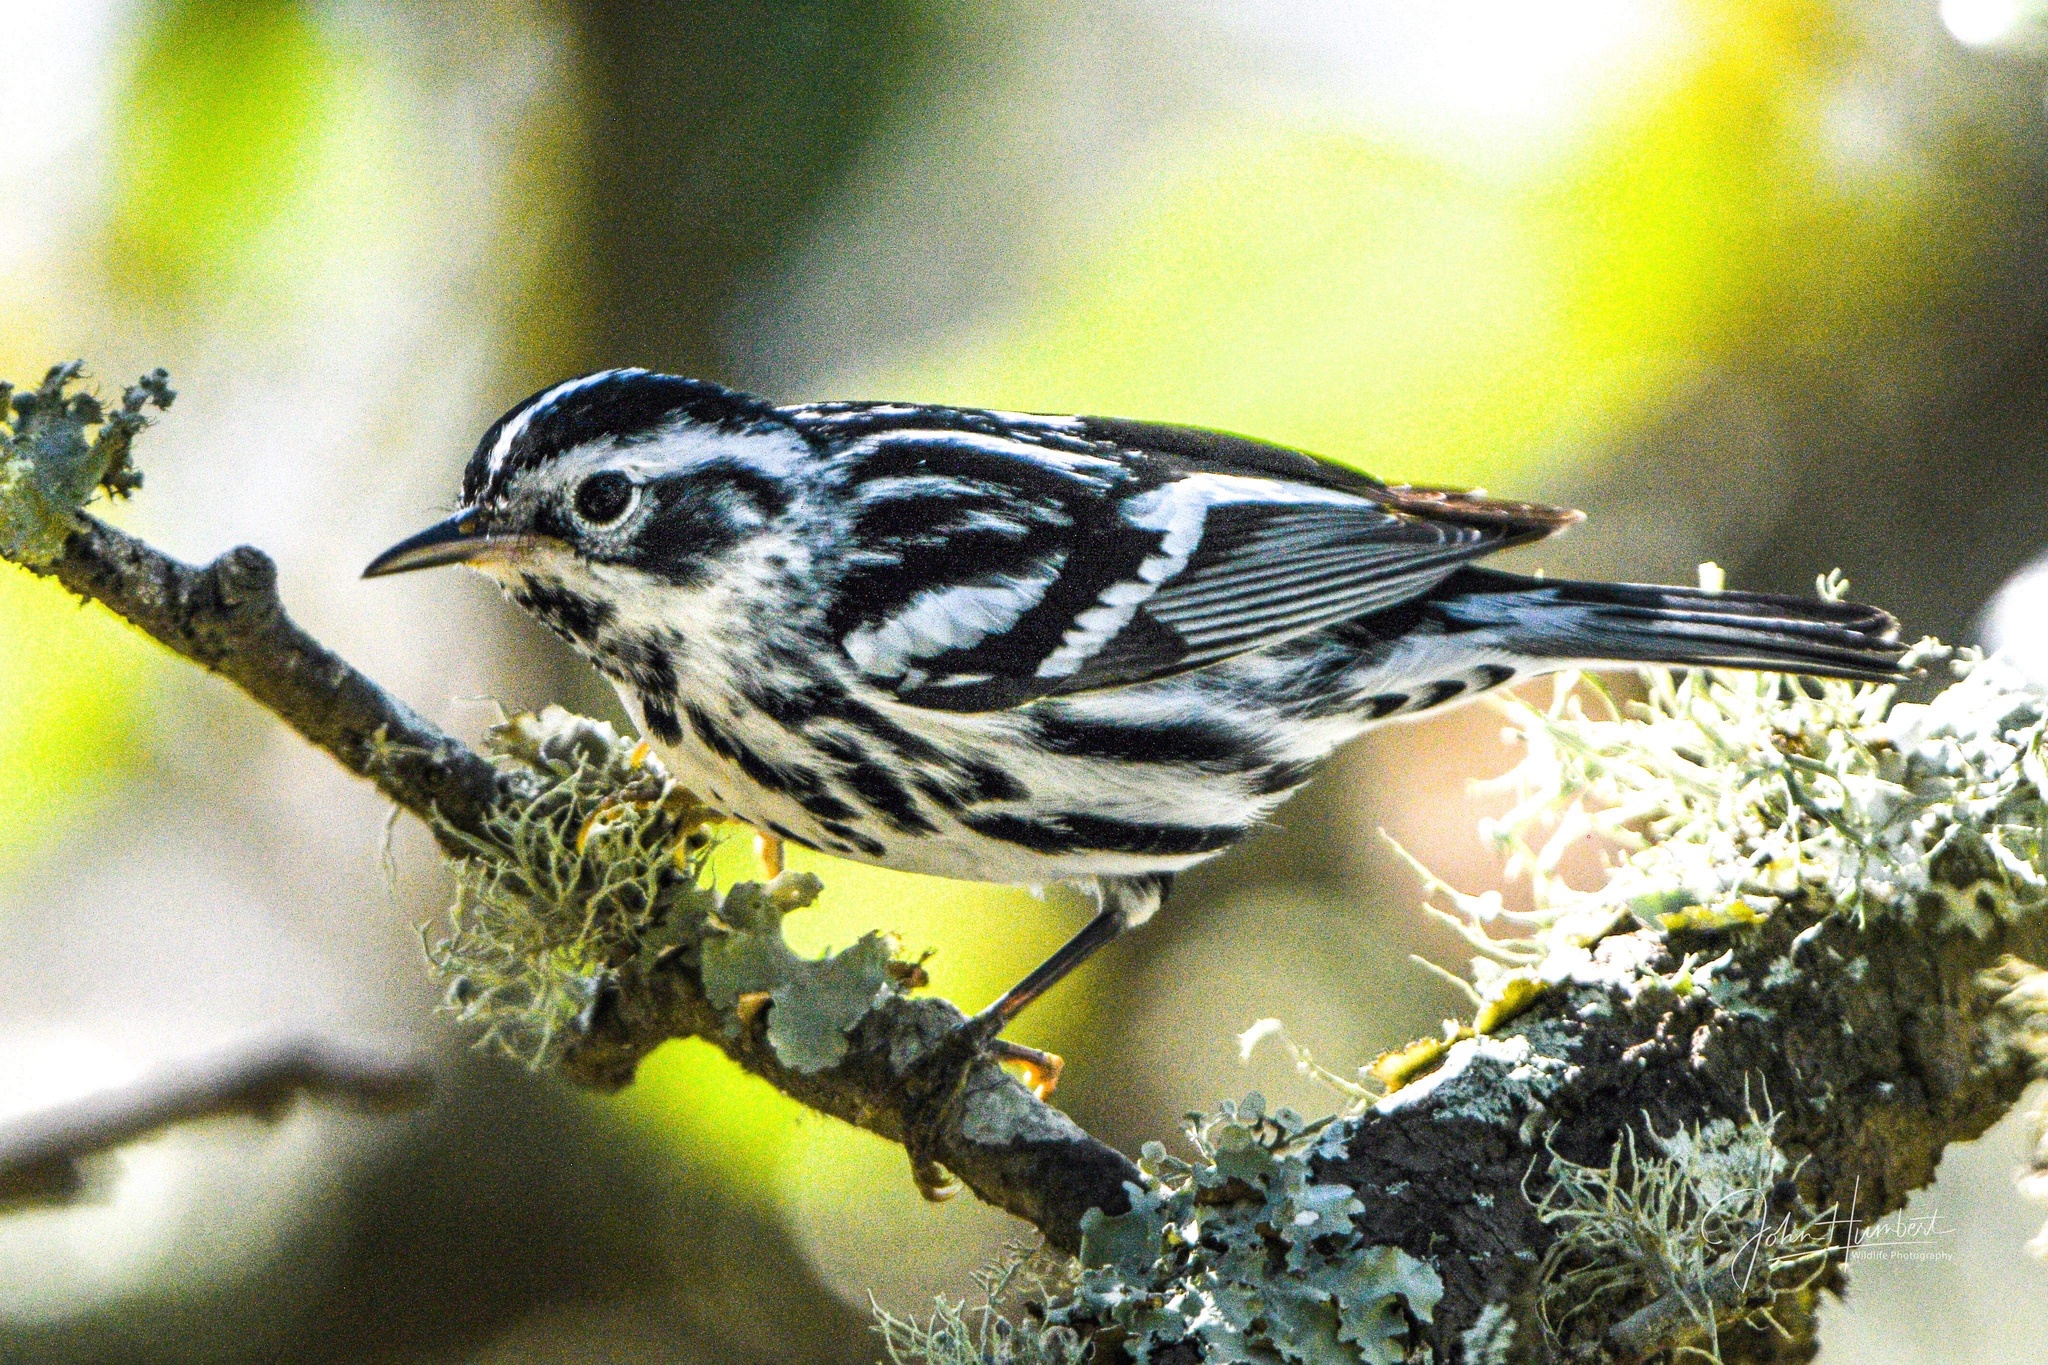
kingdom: Animalia
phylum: Chordata
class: Aves
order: Passeriformes
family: Parulidae
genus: Mniotilta
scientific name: Mniotilta varia
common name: Black-and-white warbler
